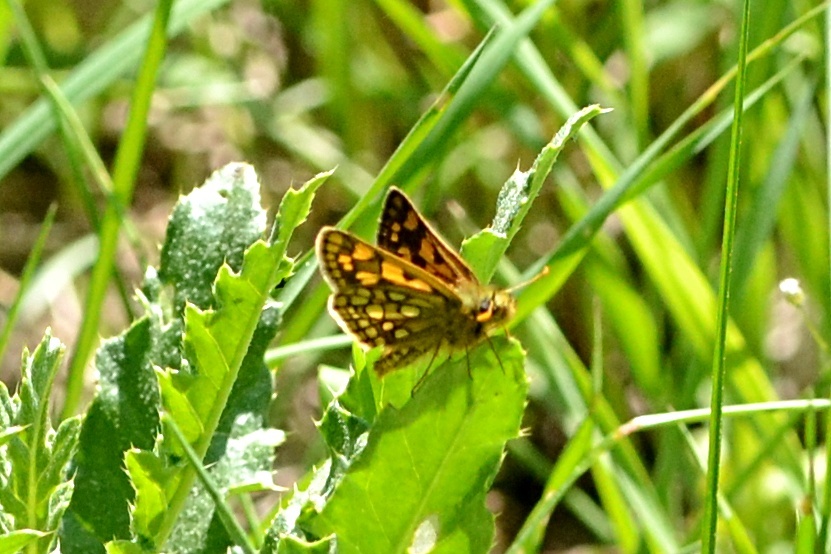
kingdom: Animalia
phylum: Arthropoda
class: Insecta
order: Lepidoptera
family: Hesperiidae
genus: Carterocephalus
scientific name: Carterocephalus palaemon
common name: Chequered skipper
